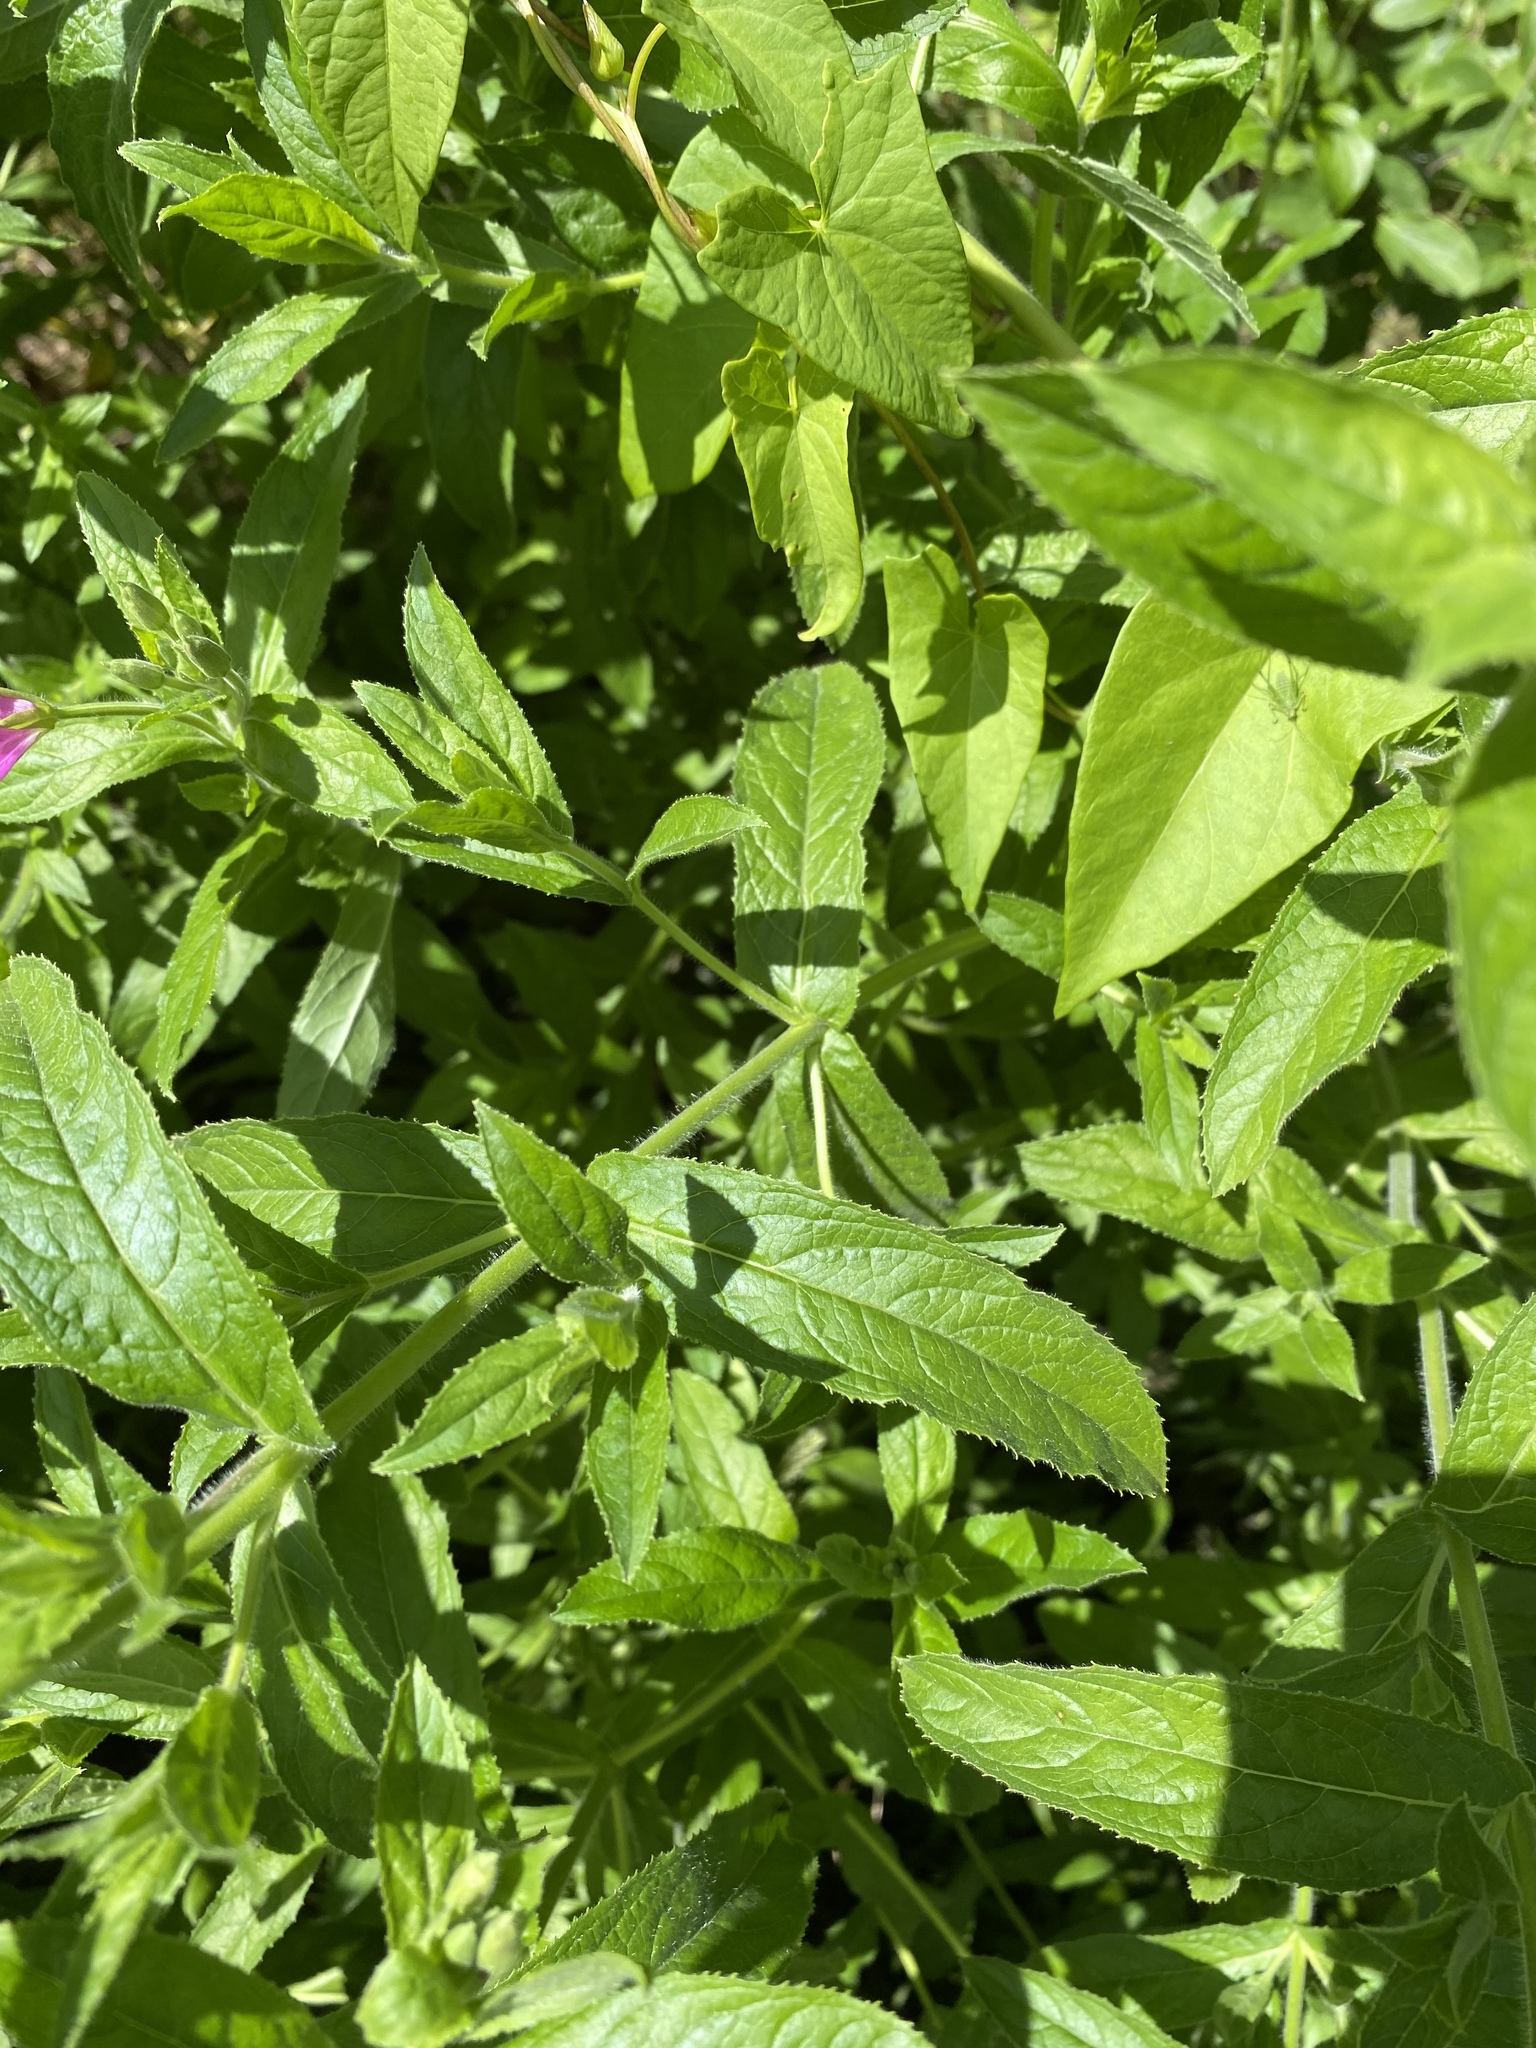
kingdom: Plantae
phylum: Tracheophyta
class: Magnoliopsida
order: Myrtales
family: Onagraceae
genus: Epilobium
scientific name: Epilobium hirsutum
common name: Great willowherb
